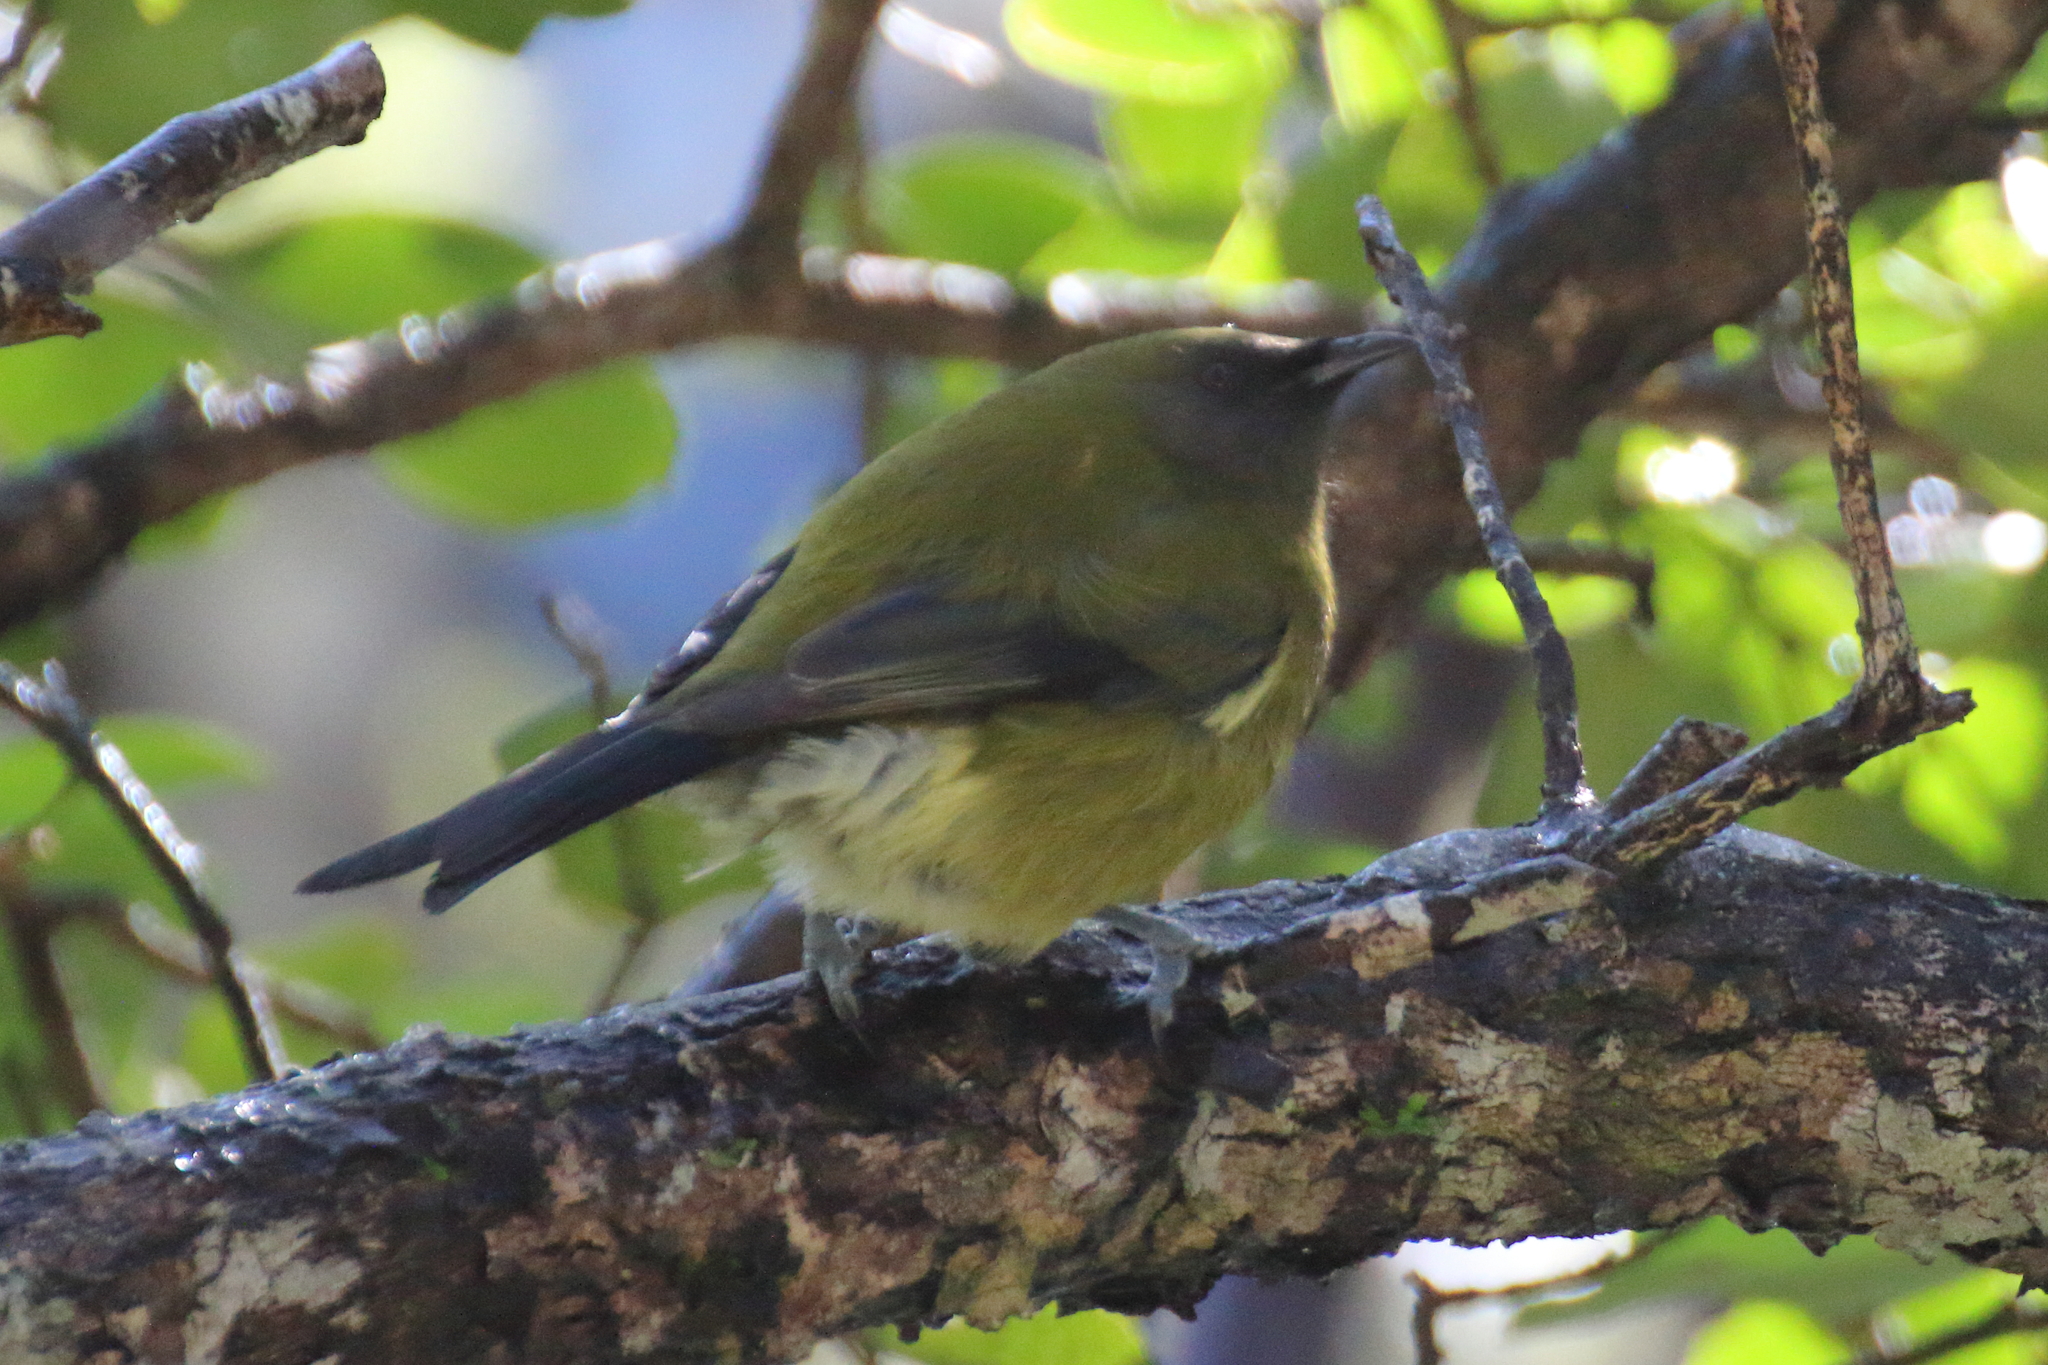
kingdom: Animalia
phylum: Chordata
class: Aves
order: Passeriformes
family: Meliphagidae
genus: Anthornis
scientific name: Anthornis melanura
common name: New zealand bellbird
